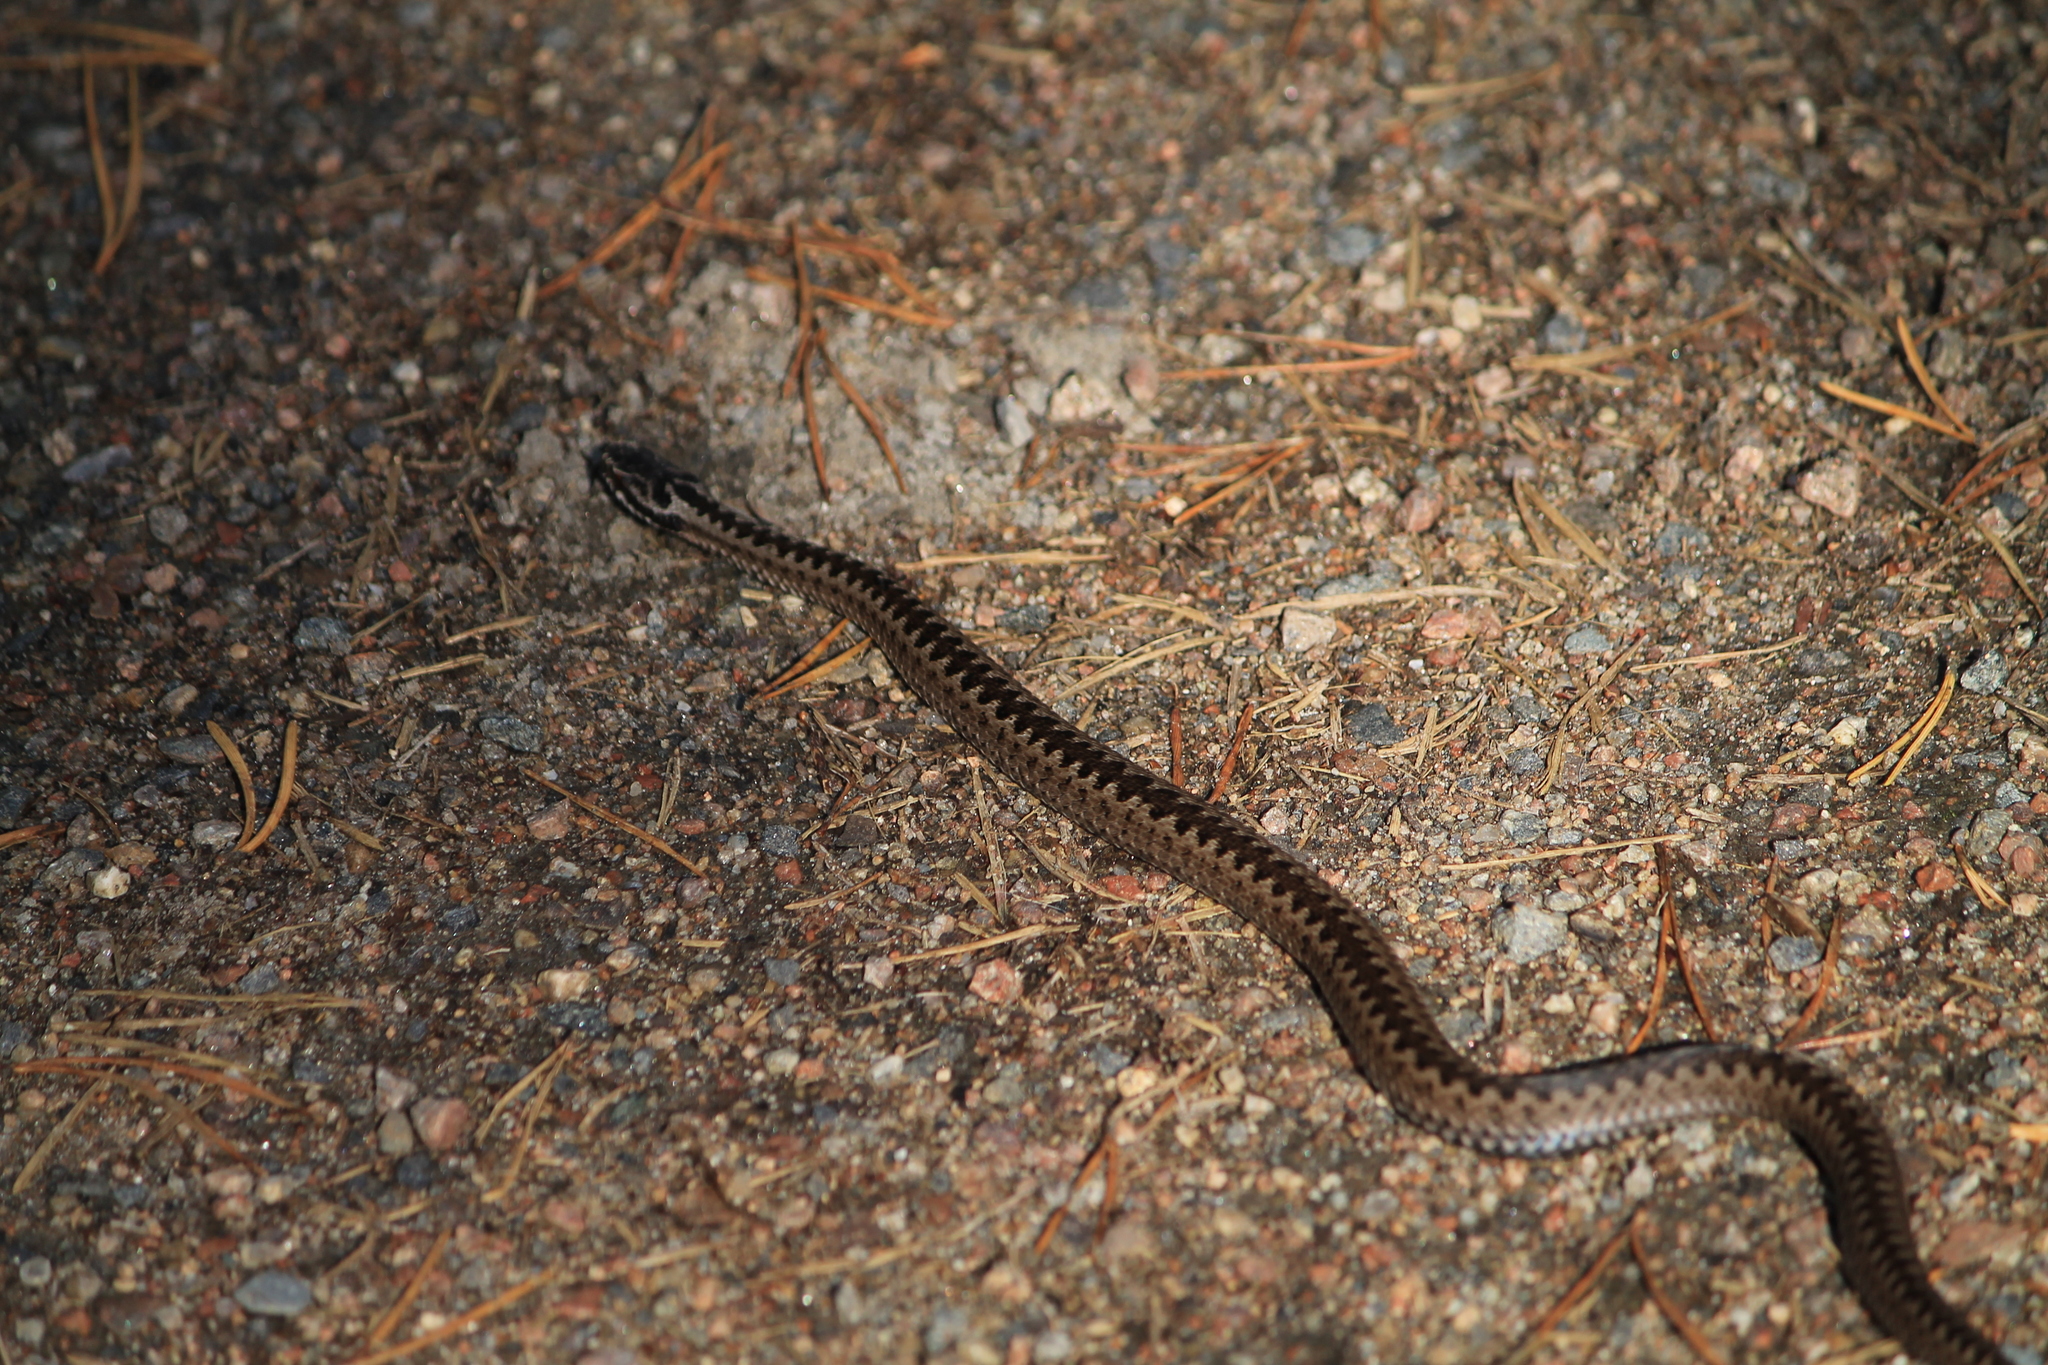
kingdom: Animalia
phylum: Chordata
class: Squamata
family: Viperidae
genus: Vipera
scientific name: Vipera berus
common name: Adder
